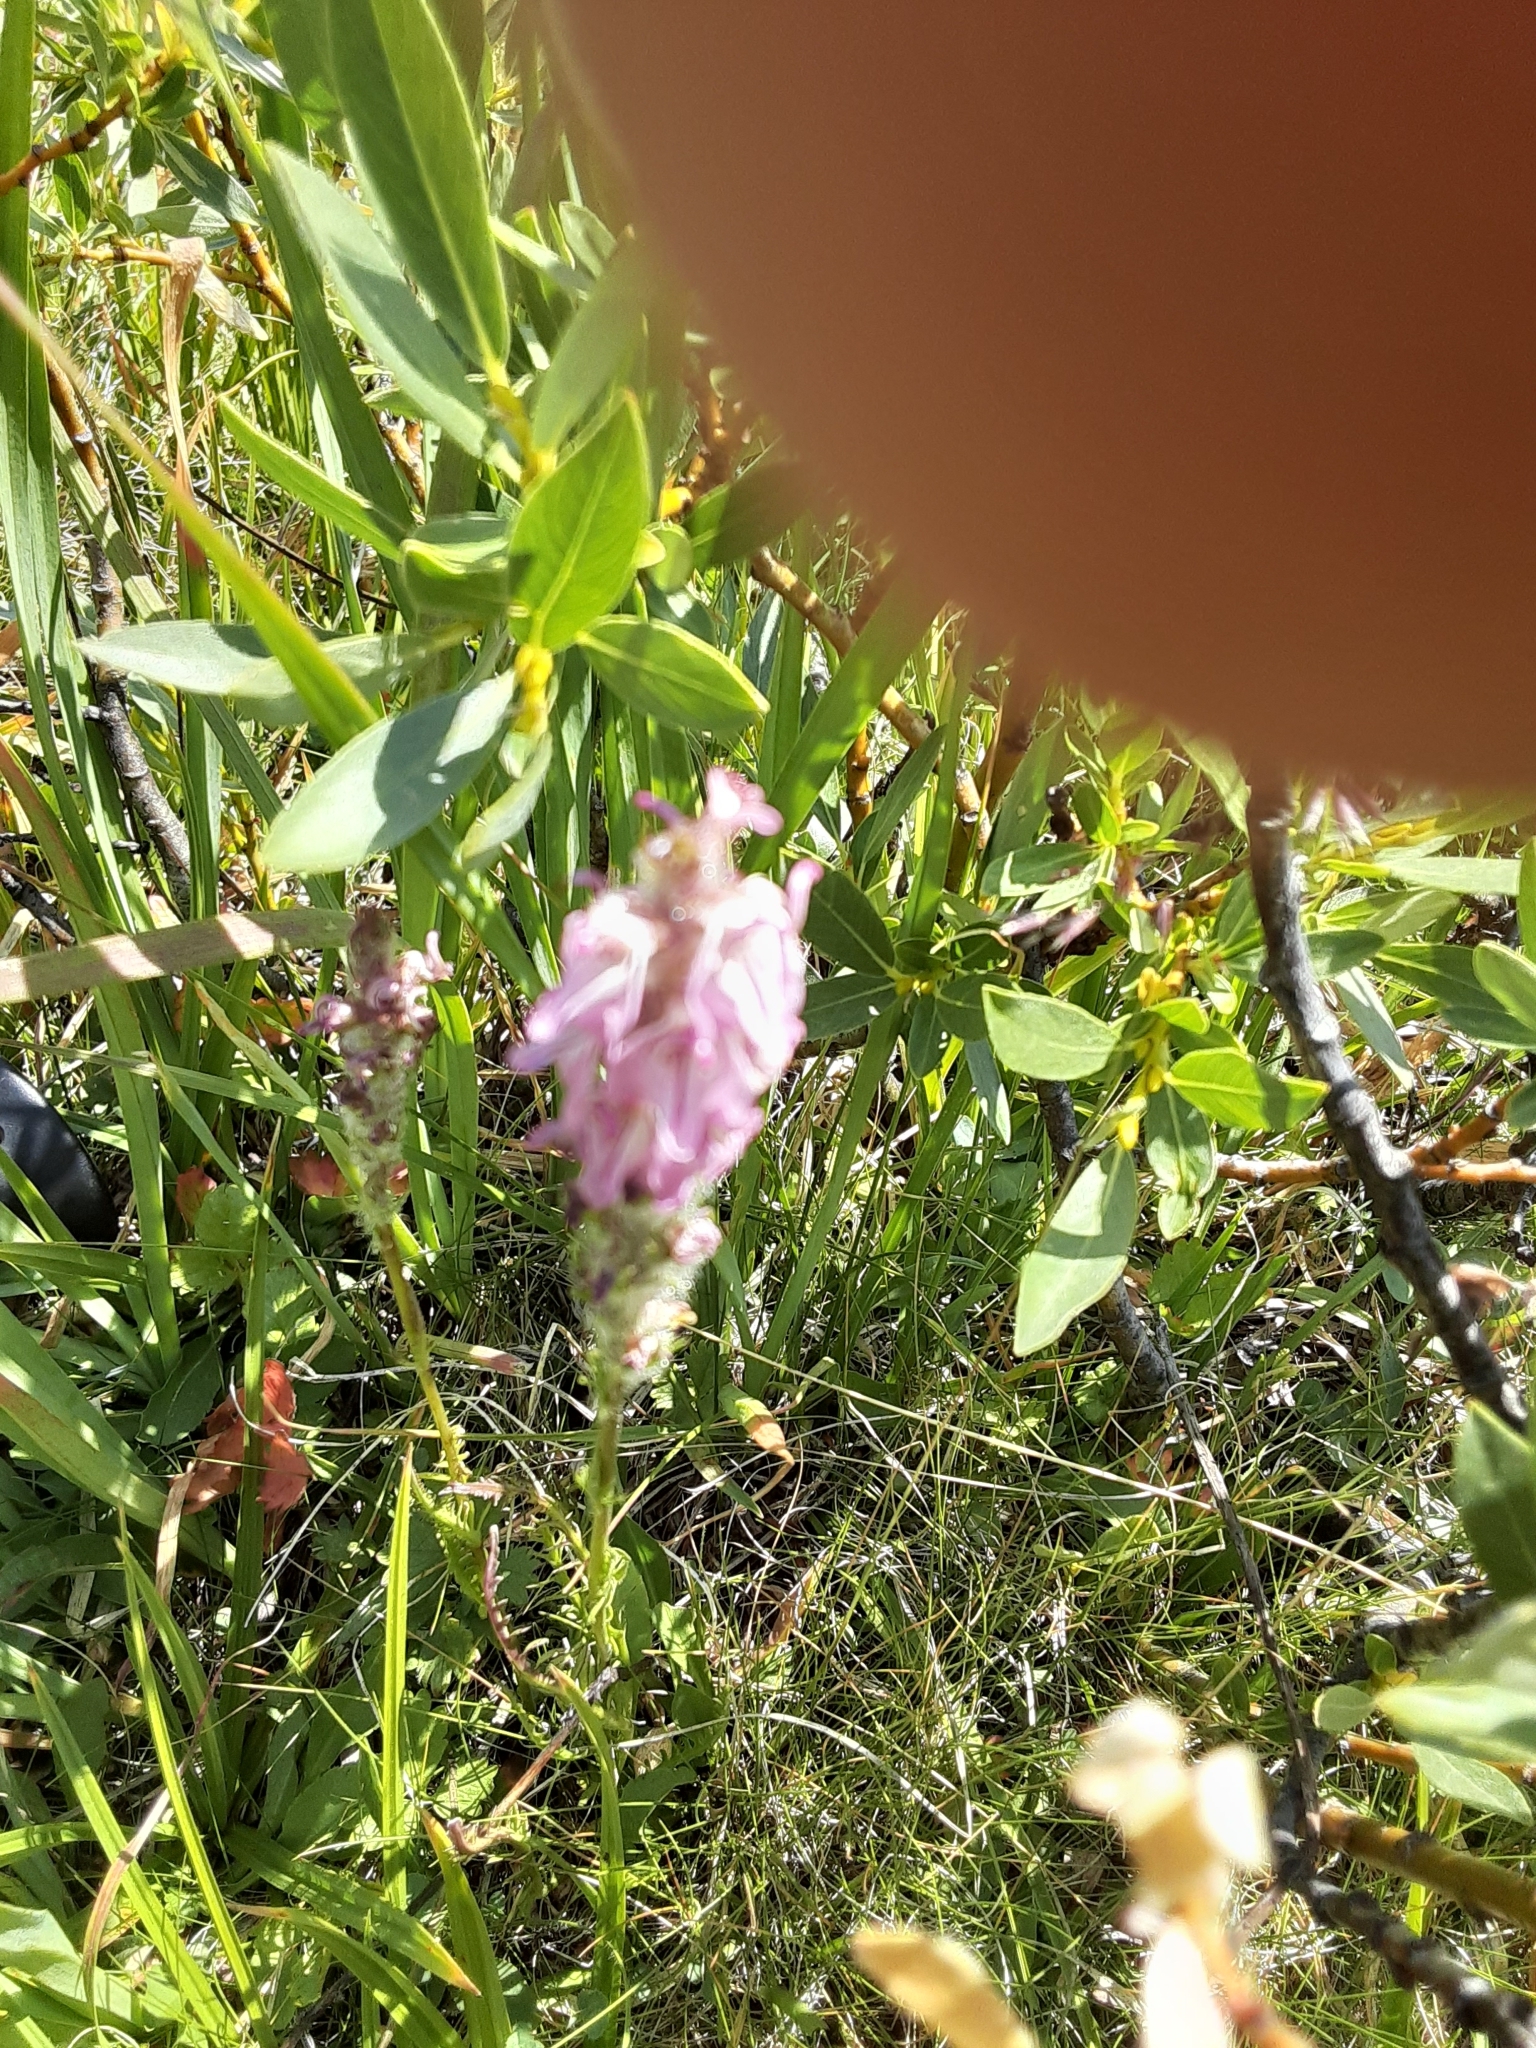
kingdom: Plantae
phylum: Tracheophyta
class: Magnoliopsida
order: Lamiales
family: Orobanchaceae
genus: Pedicularis
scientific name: Pedicularis attollens
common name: Slender pedicularis
